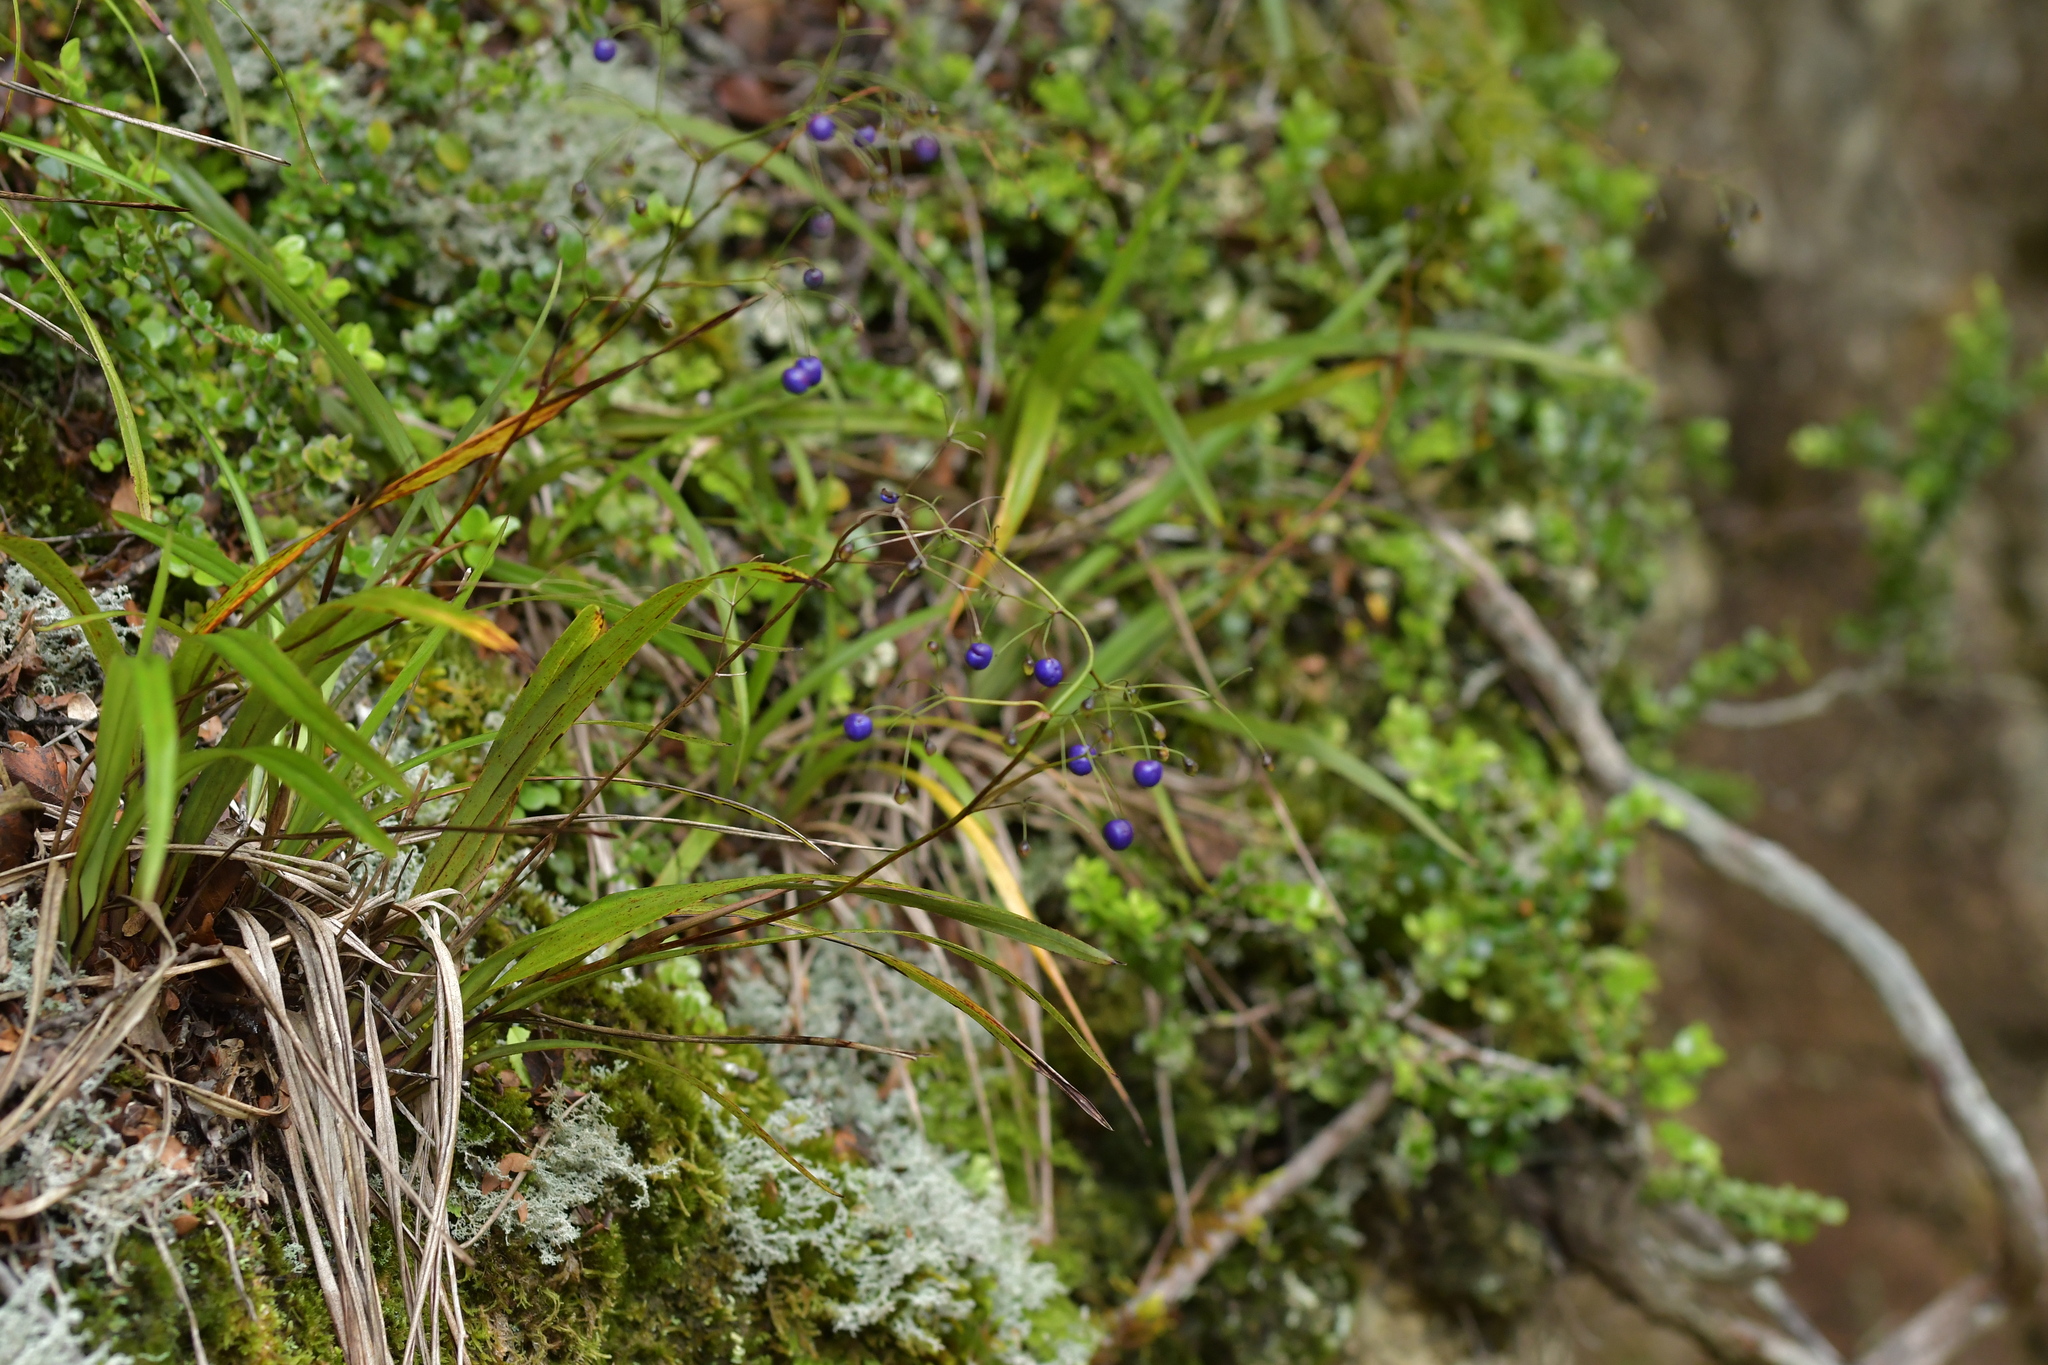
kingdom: Plantae
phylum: Tracheophyta
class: Liliopsida
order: Asparagales
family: Asphodelaceae
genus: Dianella
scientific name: Dianella nigra
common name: New zealand-blueberry
